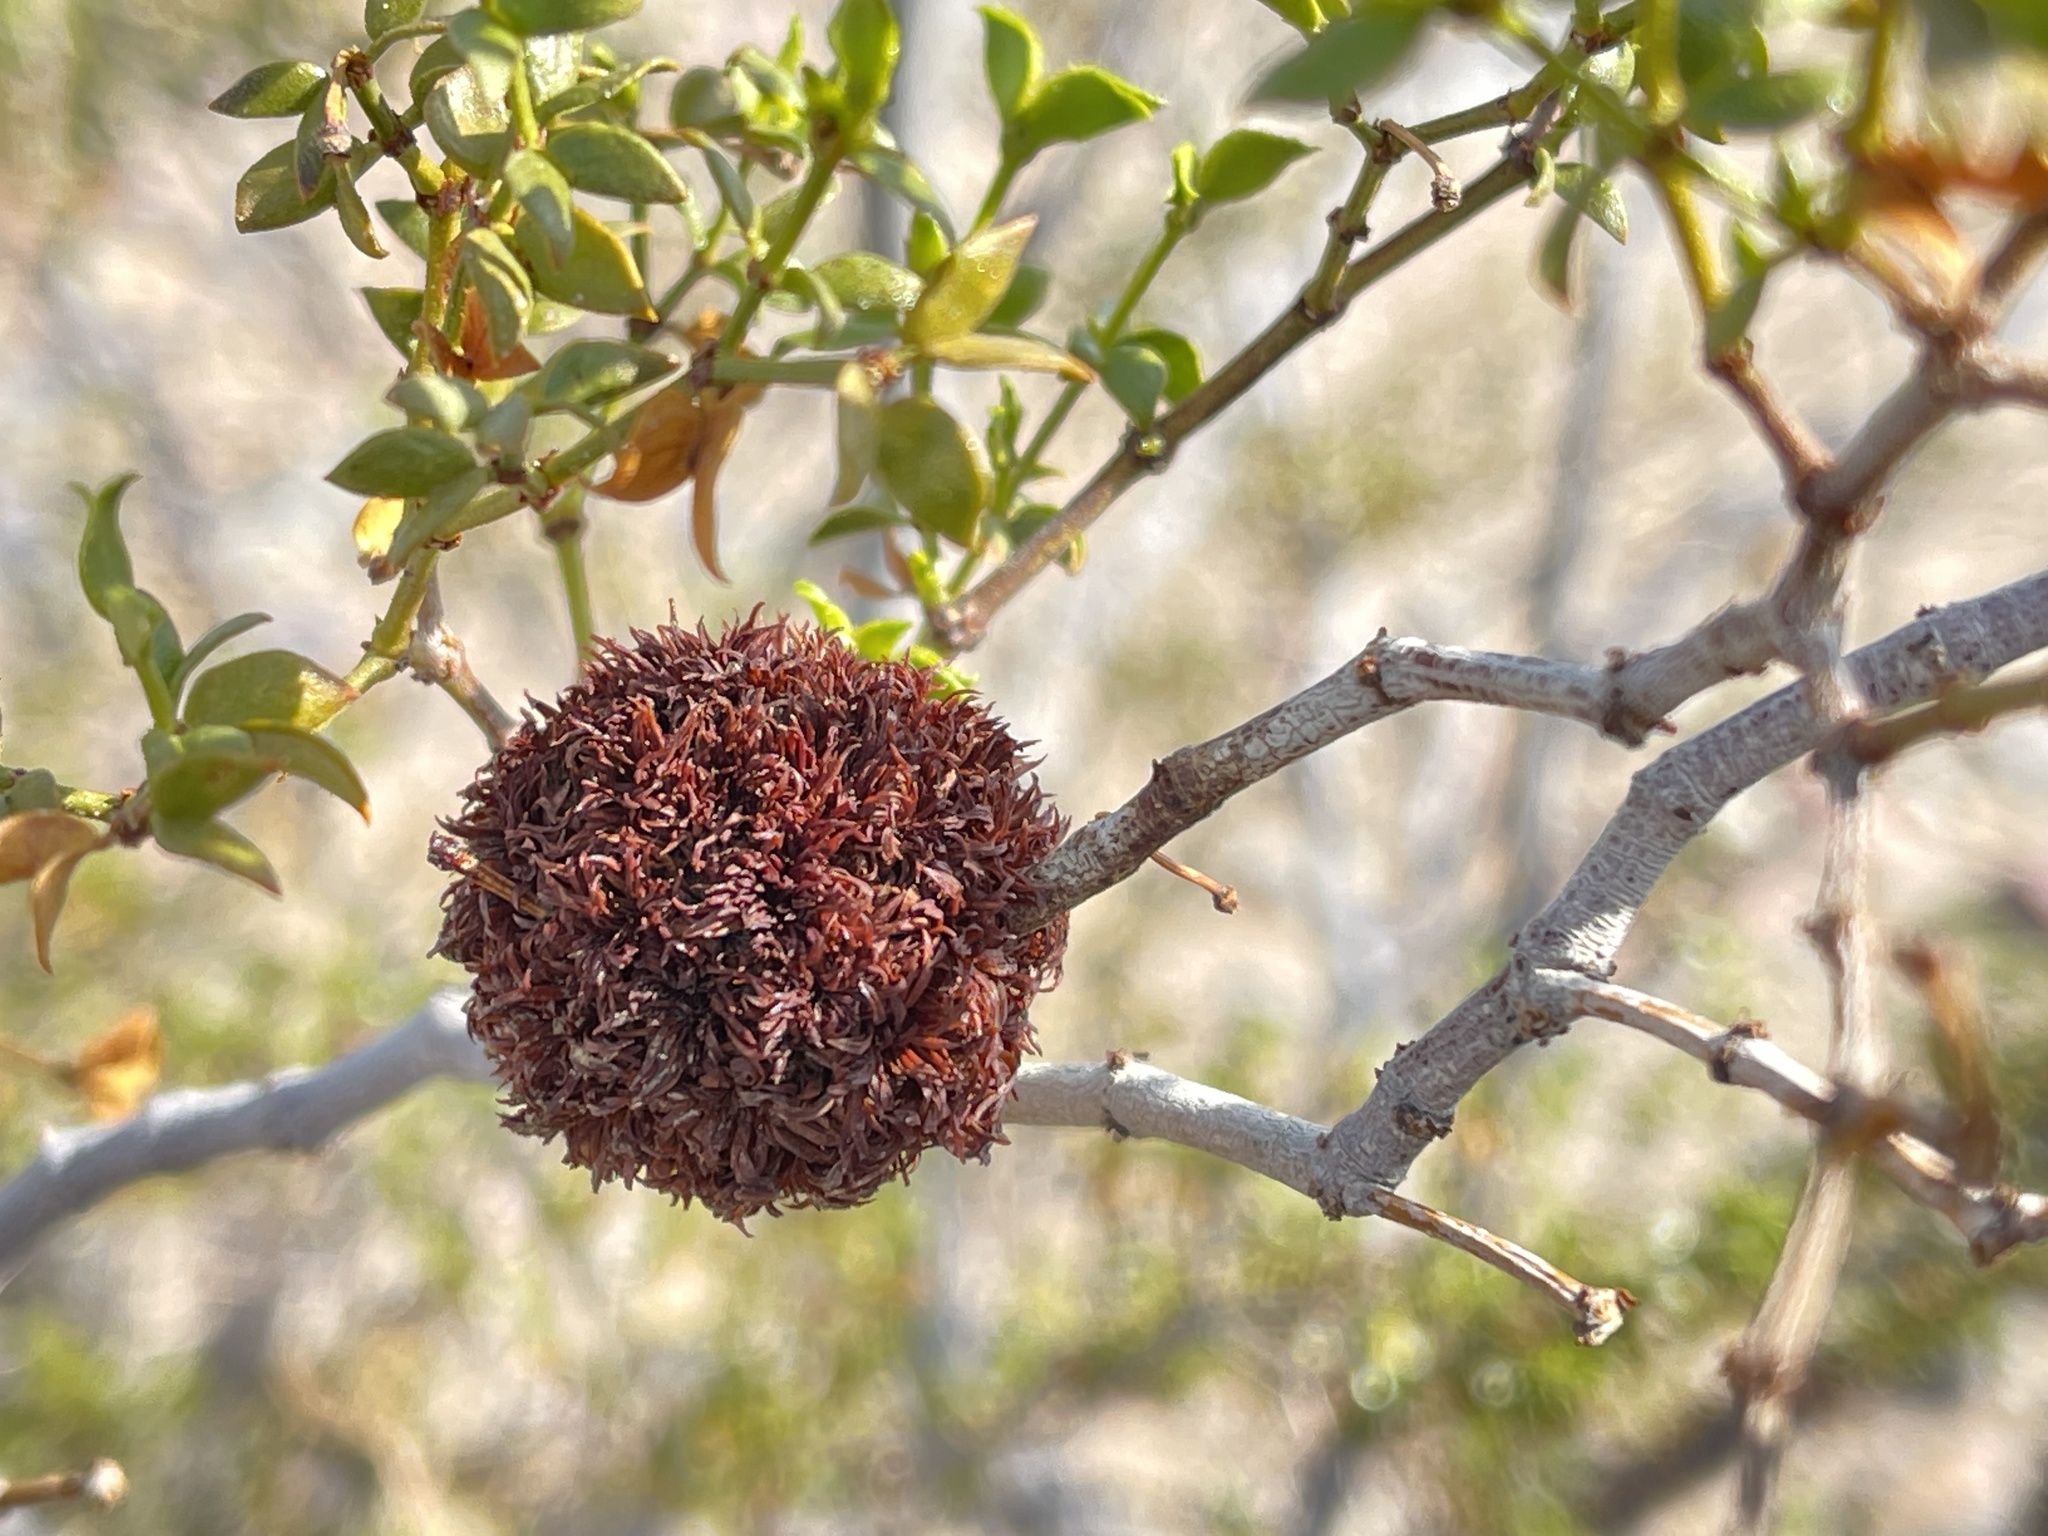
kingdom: Animalia
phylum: Arthropoda
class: Insecta
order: Diptera
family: Cecidomyiidae
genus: Asphondylia
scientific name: Asphondylia auripila
